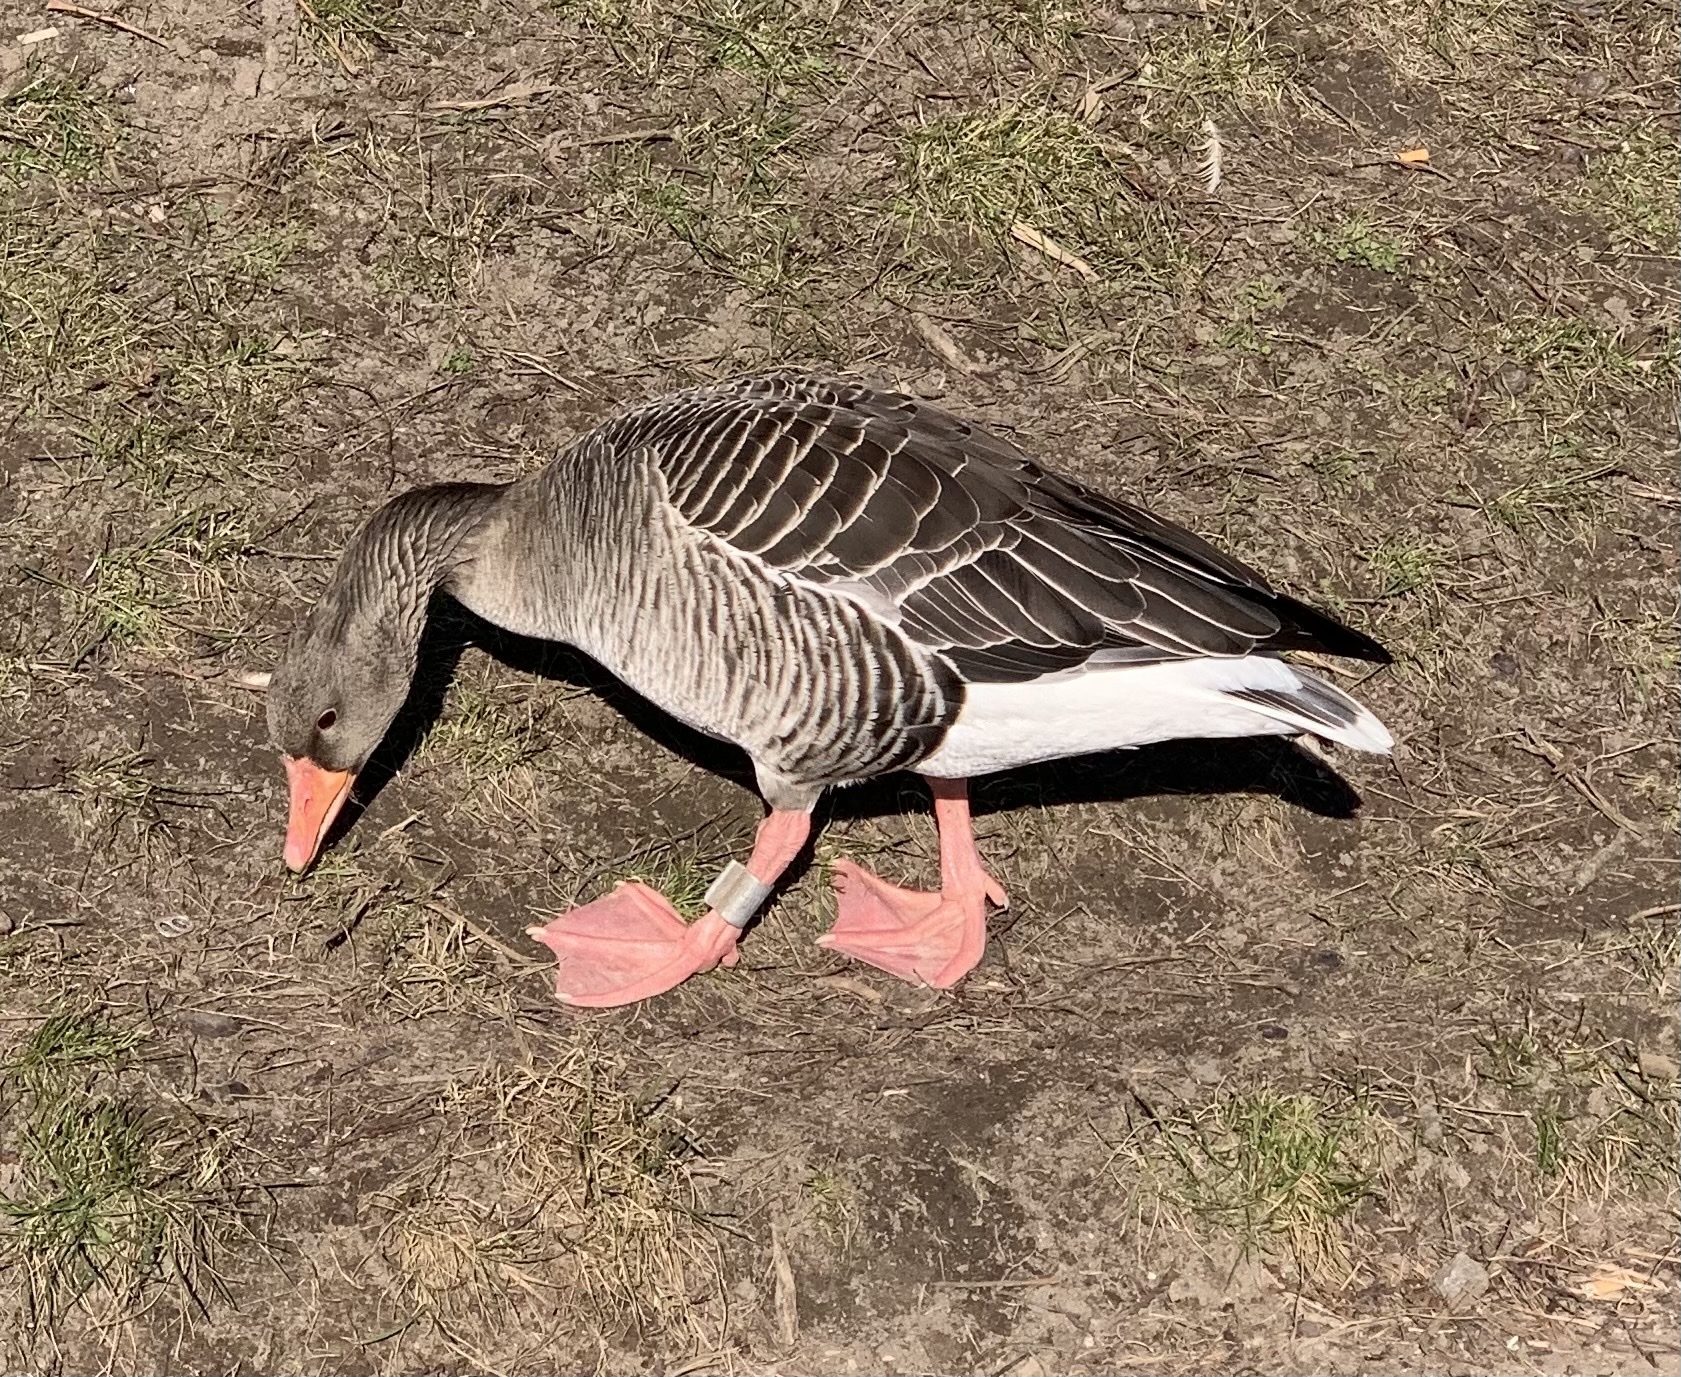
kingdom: Animalia
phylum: Chordata
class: Aves
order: Anseriformes
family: Anatidae
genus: Anser
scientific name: Anser anser
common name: Greylag goose
